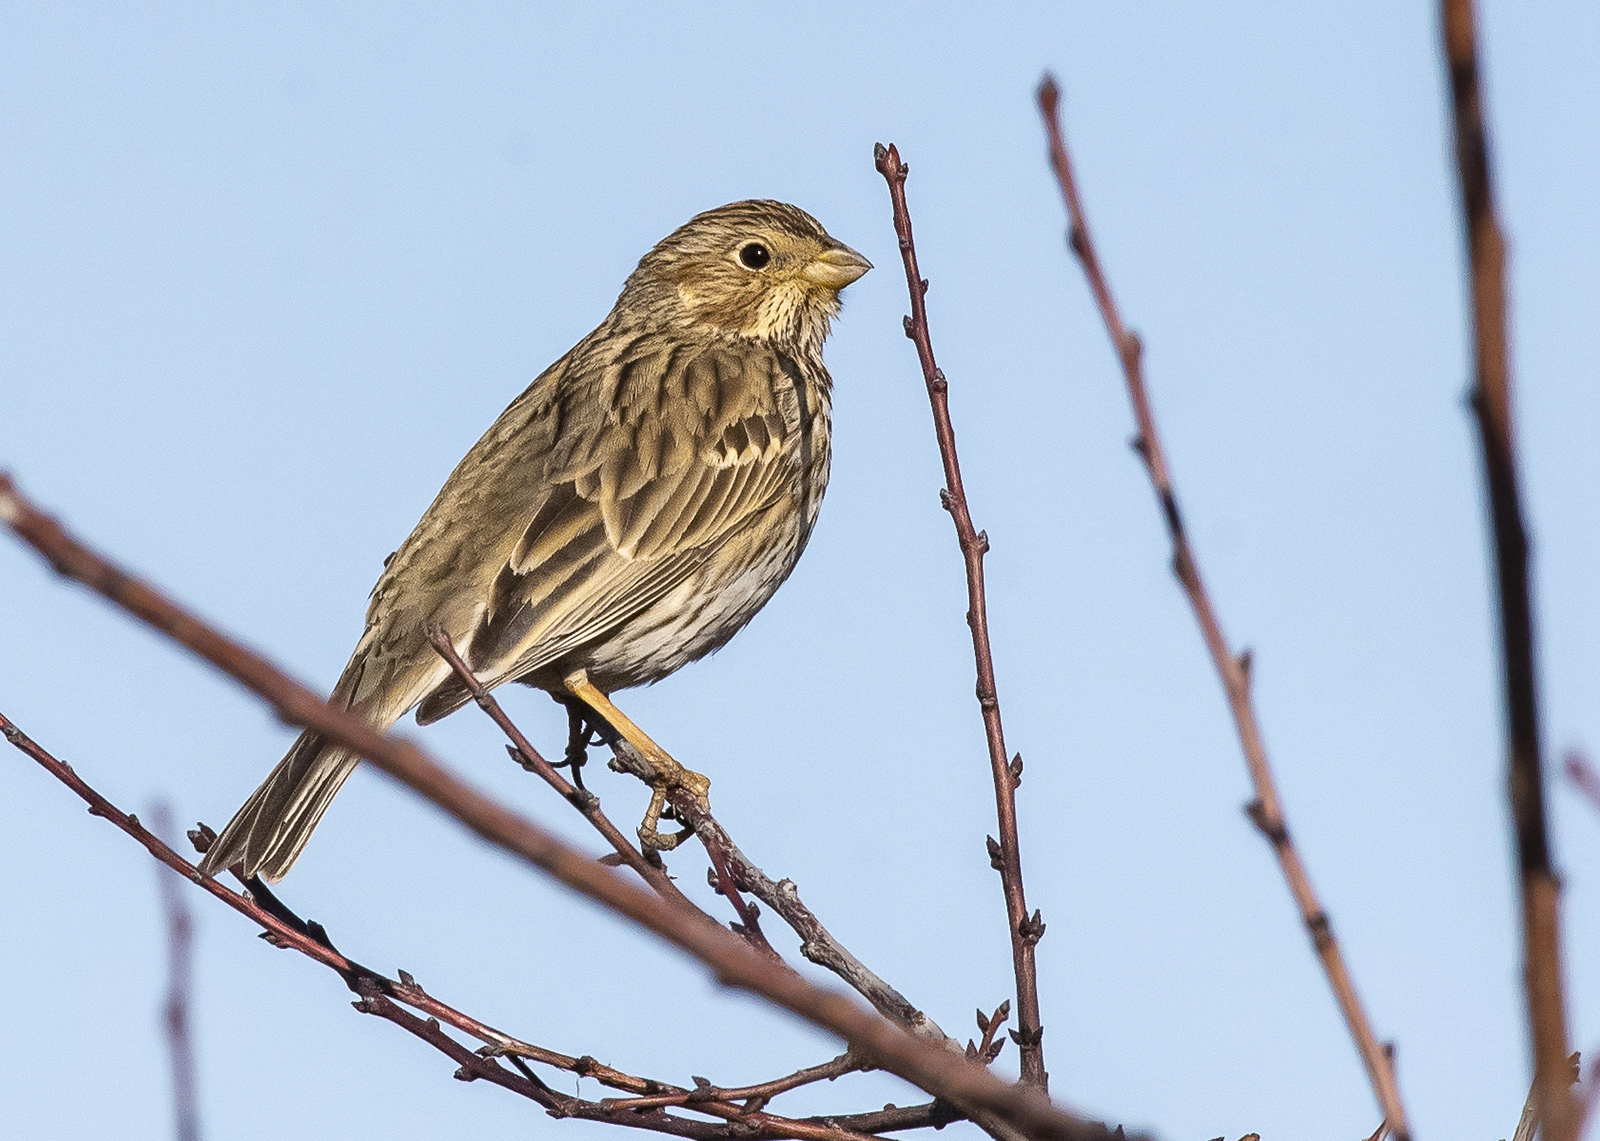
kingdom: Animalia
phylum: Chordata
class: Aves
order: Passeriformes
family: Emberizidae
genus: Emberiza
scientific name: Emberiza calandra
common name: Corn bunting
